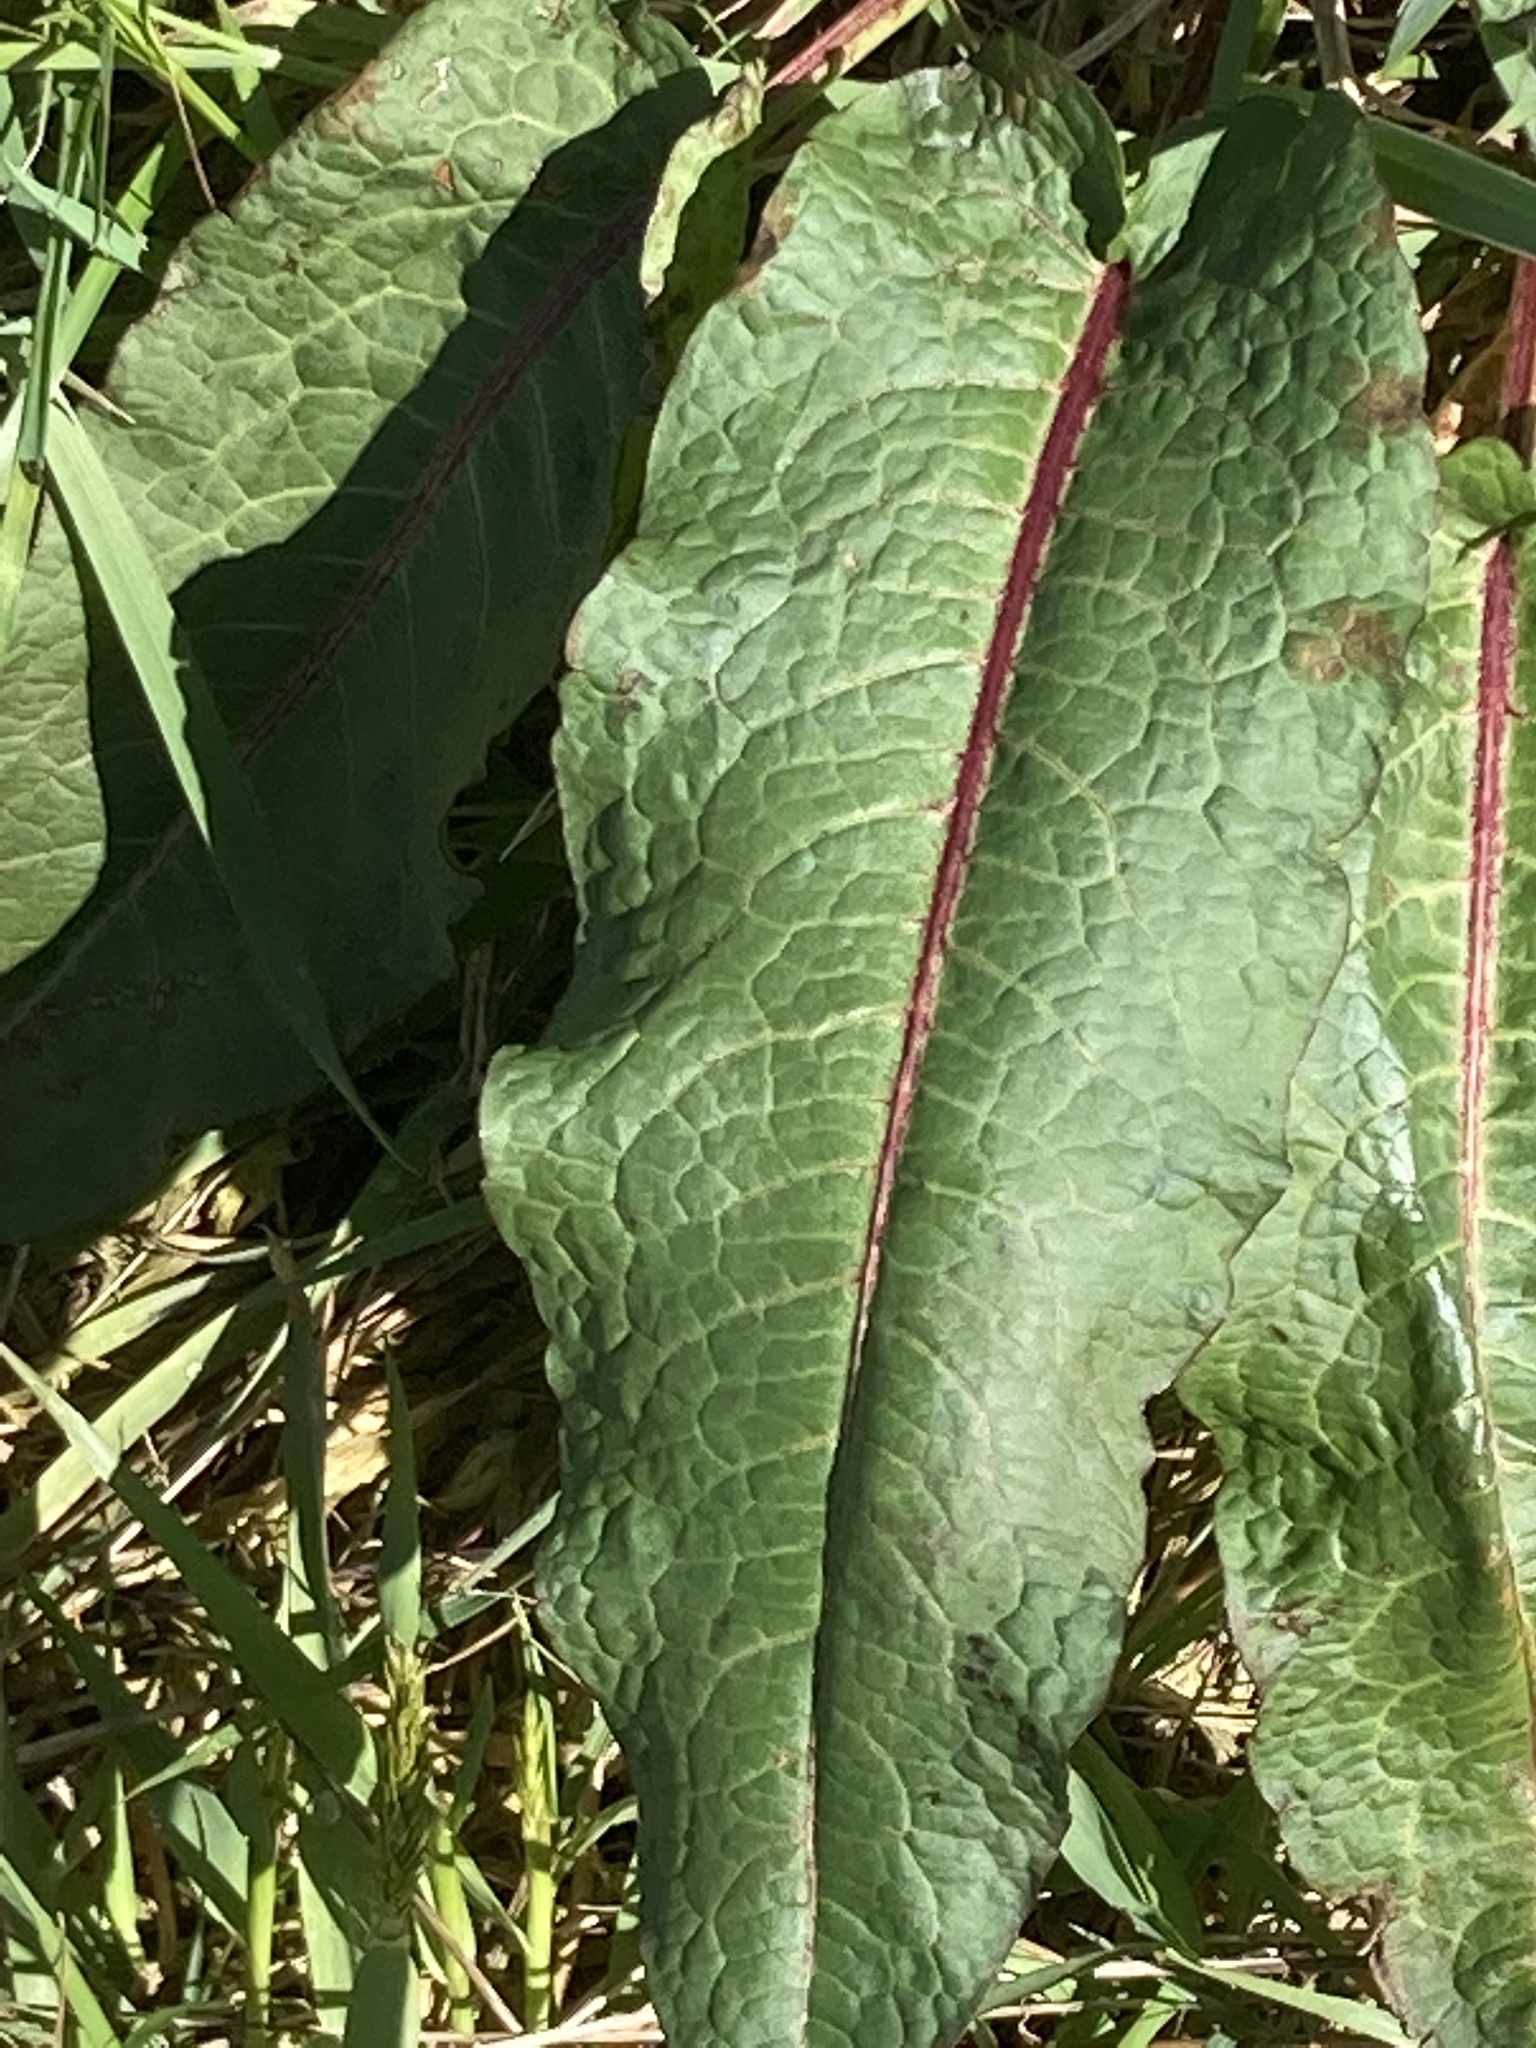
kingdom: Plantae
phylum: Tracheophyta
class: Magnoliopsida
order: Caryophyllales
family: Polygonaceae
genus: Rumex
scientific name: Rumex obtusifolius
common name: Bitter dock
